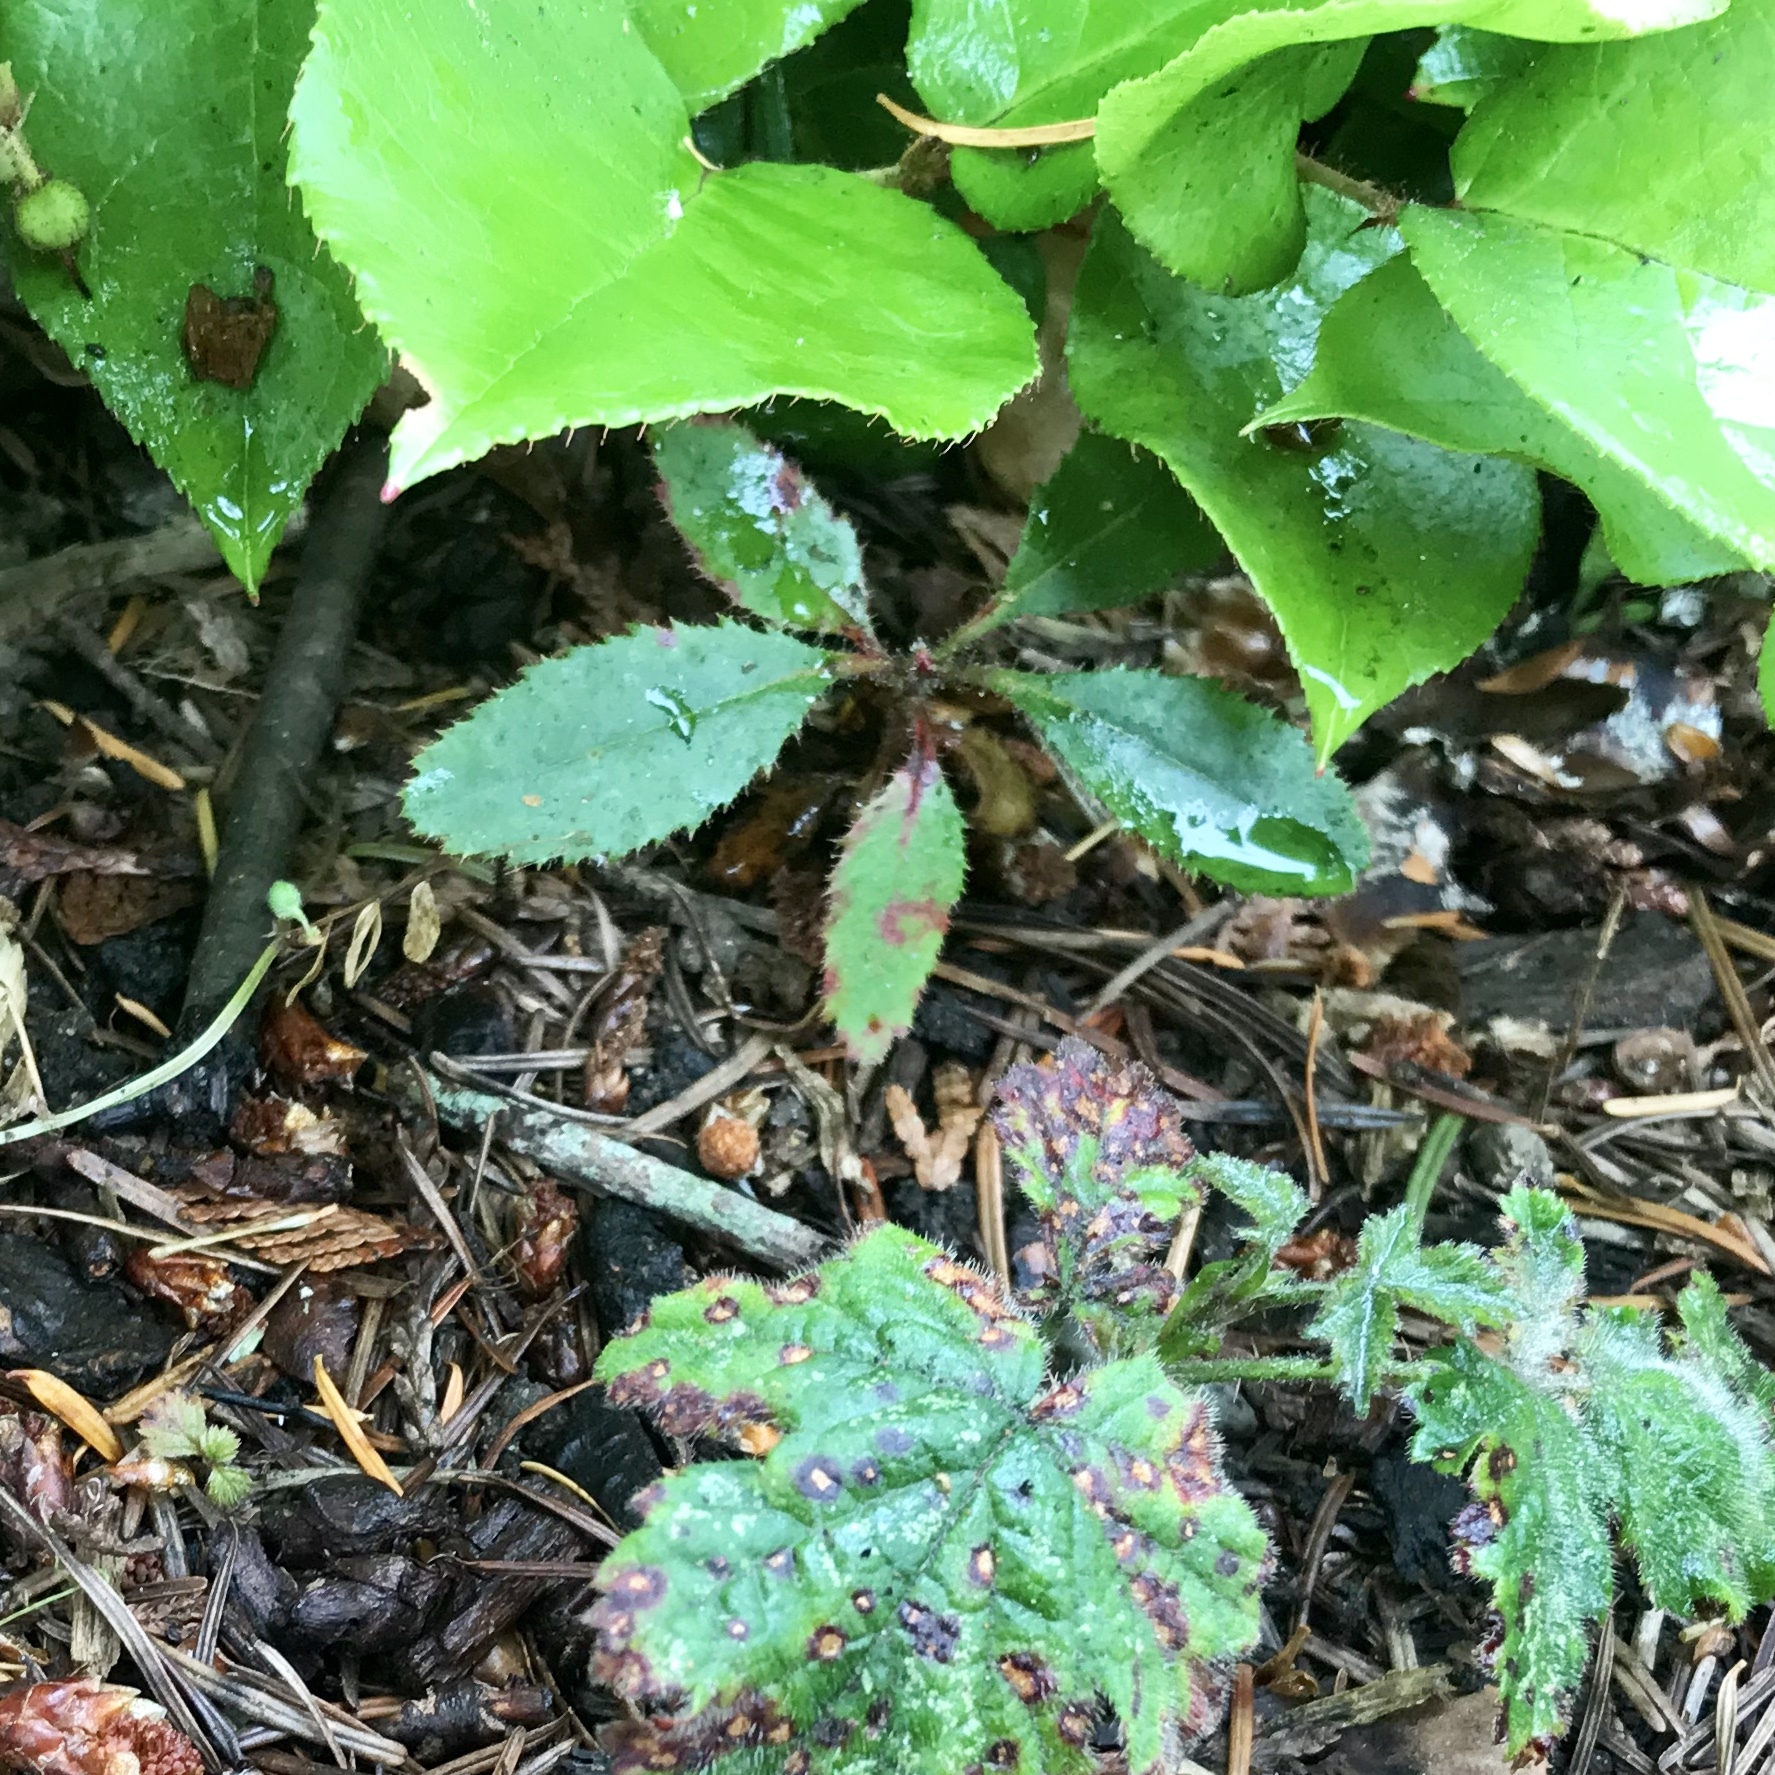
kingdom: Plantae
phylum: Tracheophyta
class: Magnoliopsida
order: Ericales
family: Ericaceae
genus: Arbutus
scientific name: Arbutus menziesii
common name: Pacific madrone
